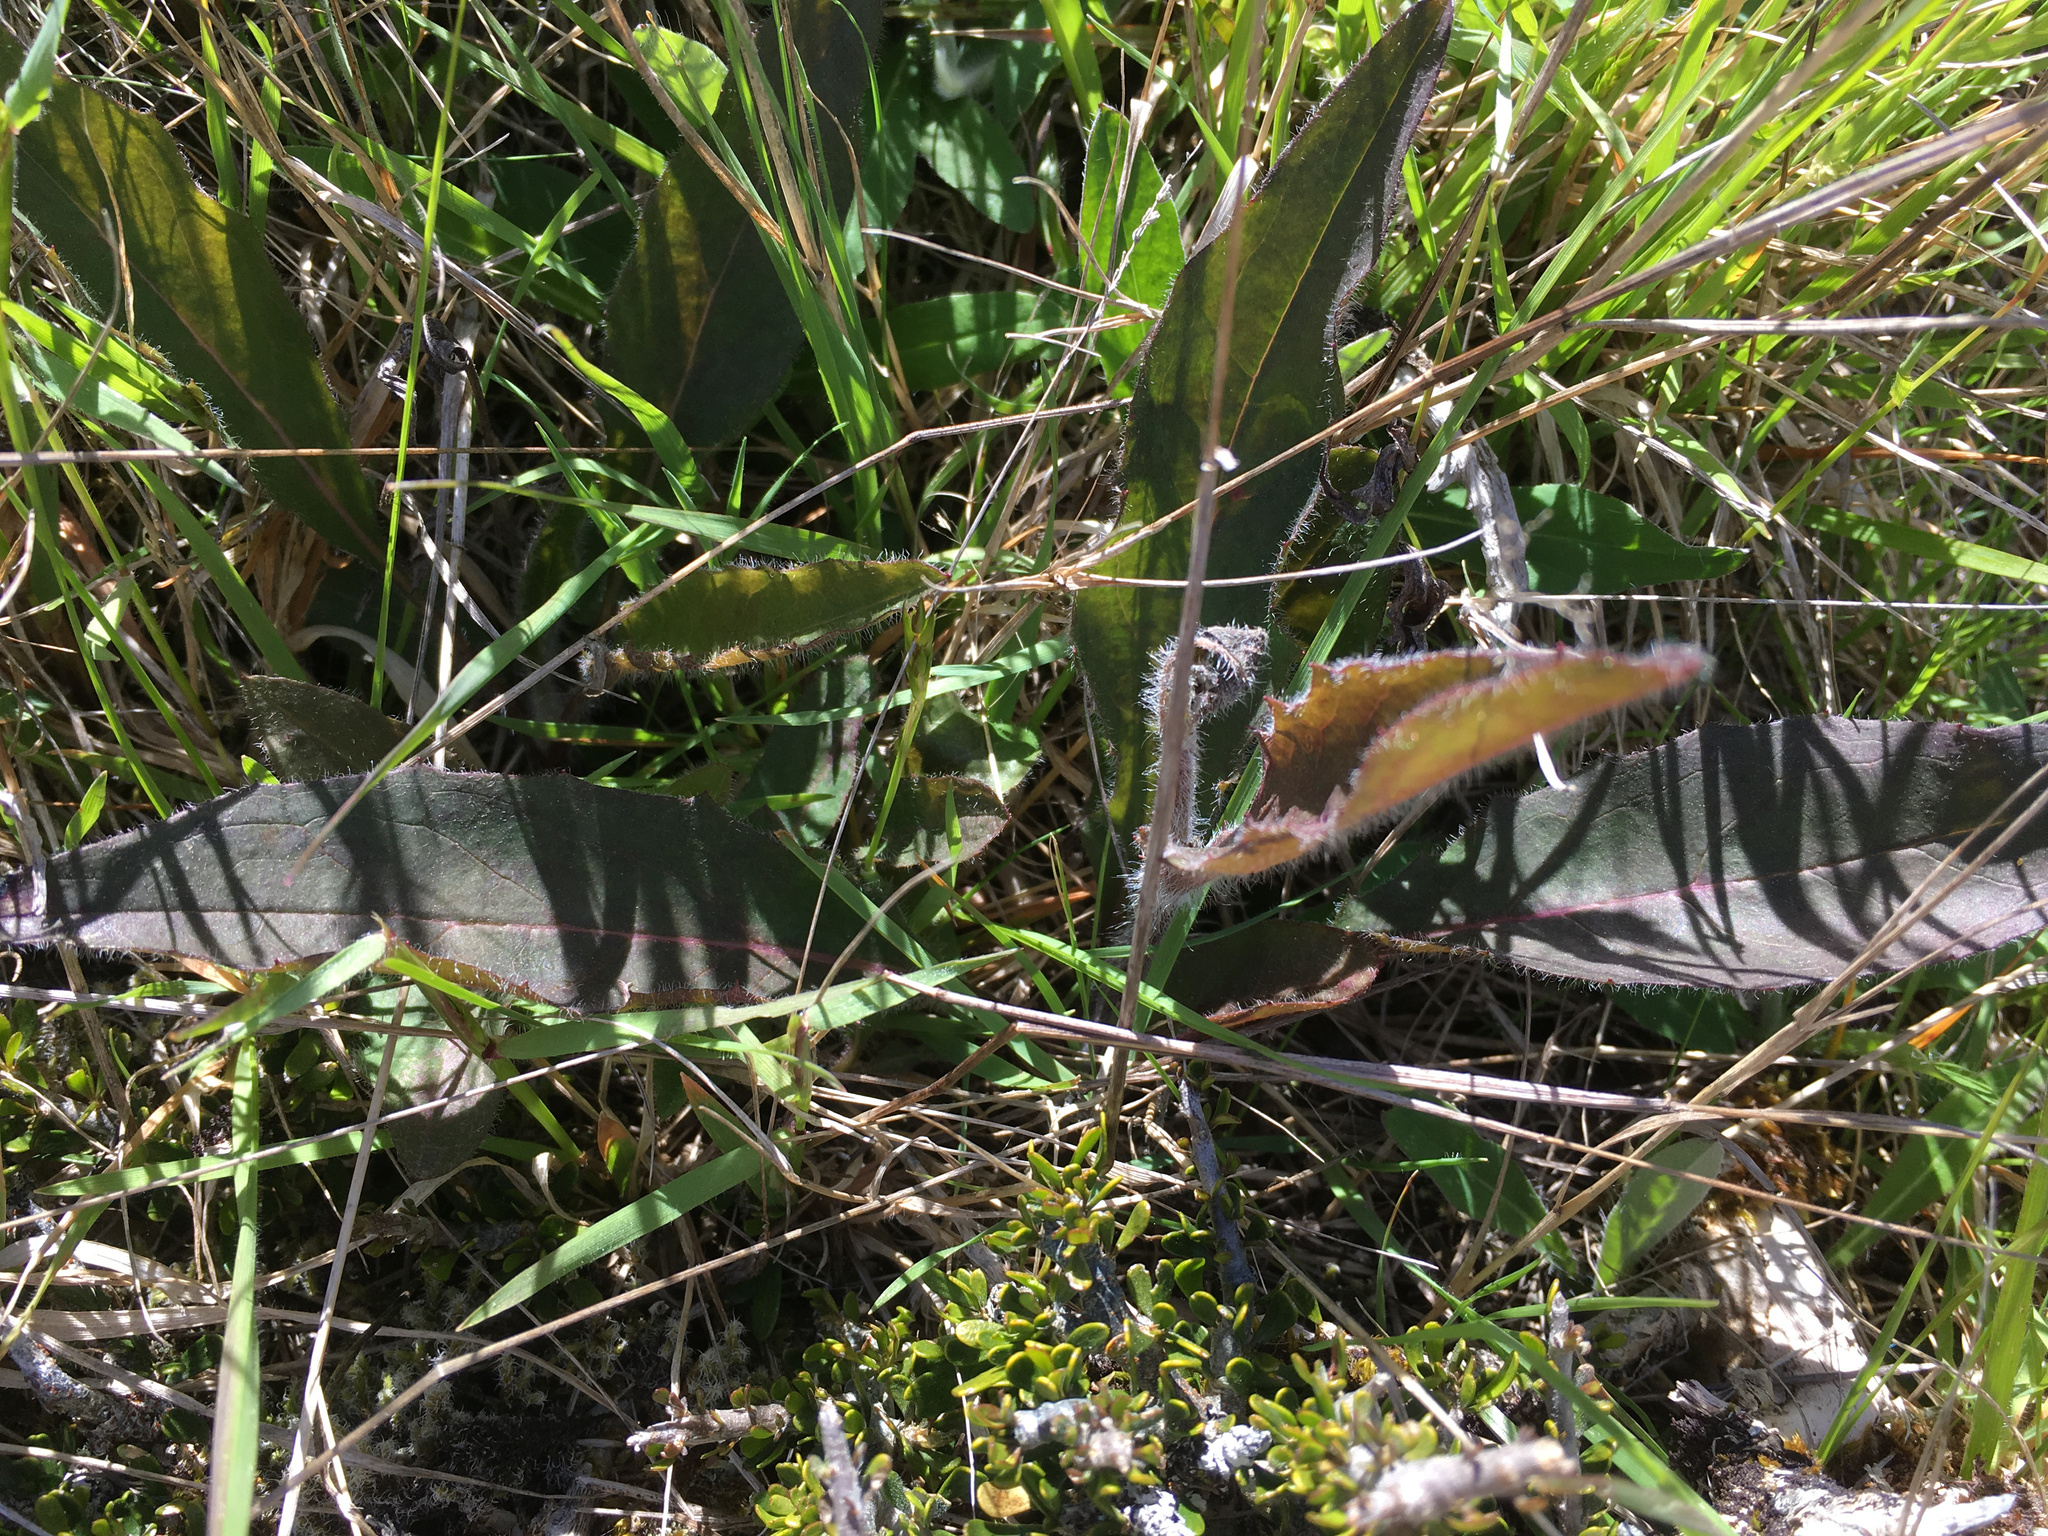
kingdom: Plantae
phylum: Tracheophyta
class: Magnoliopsida
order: Asterales
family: Asteraceae
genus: Hieracium
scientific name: Hieracium lepidulum
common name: Irregular-toothed hawkweed
